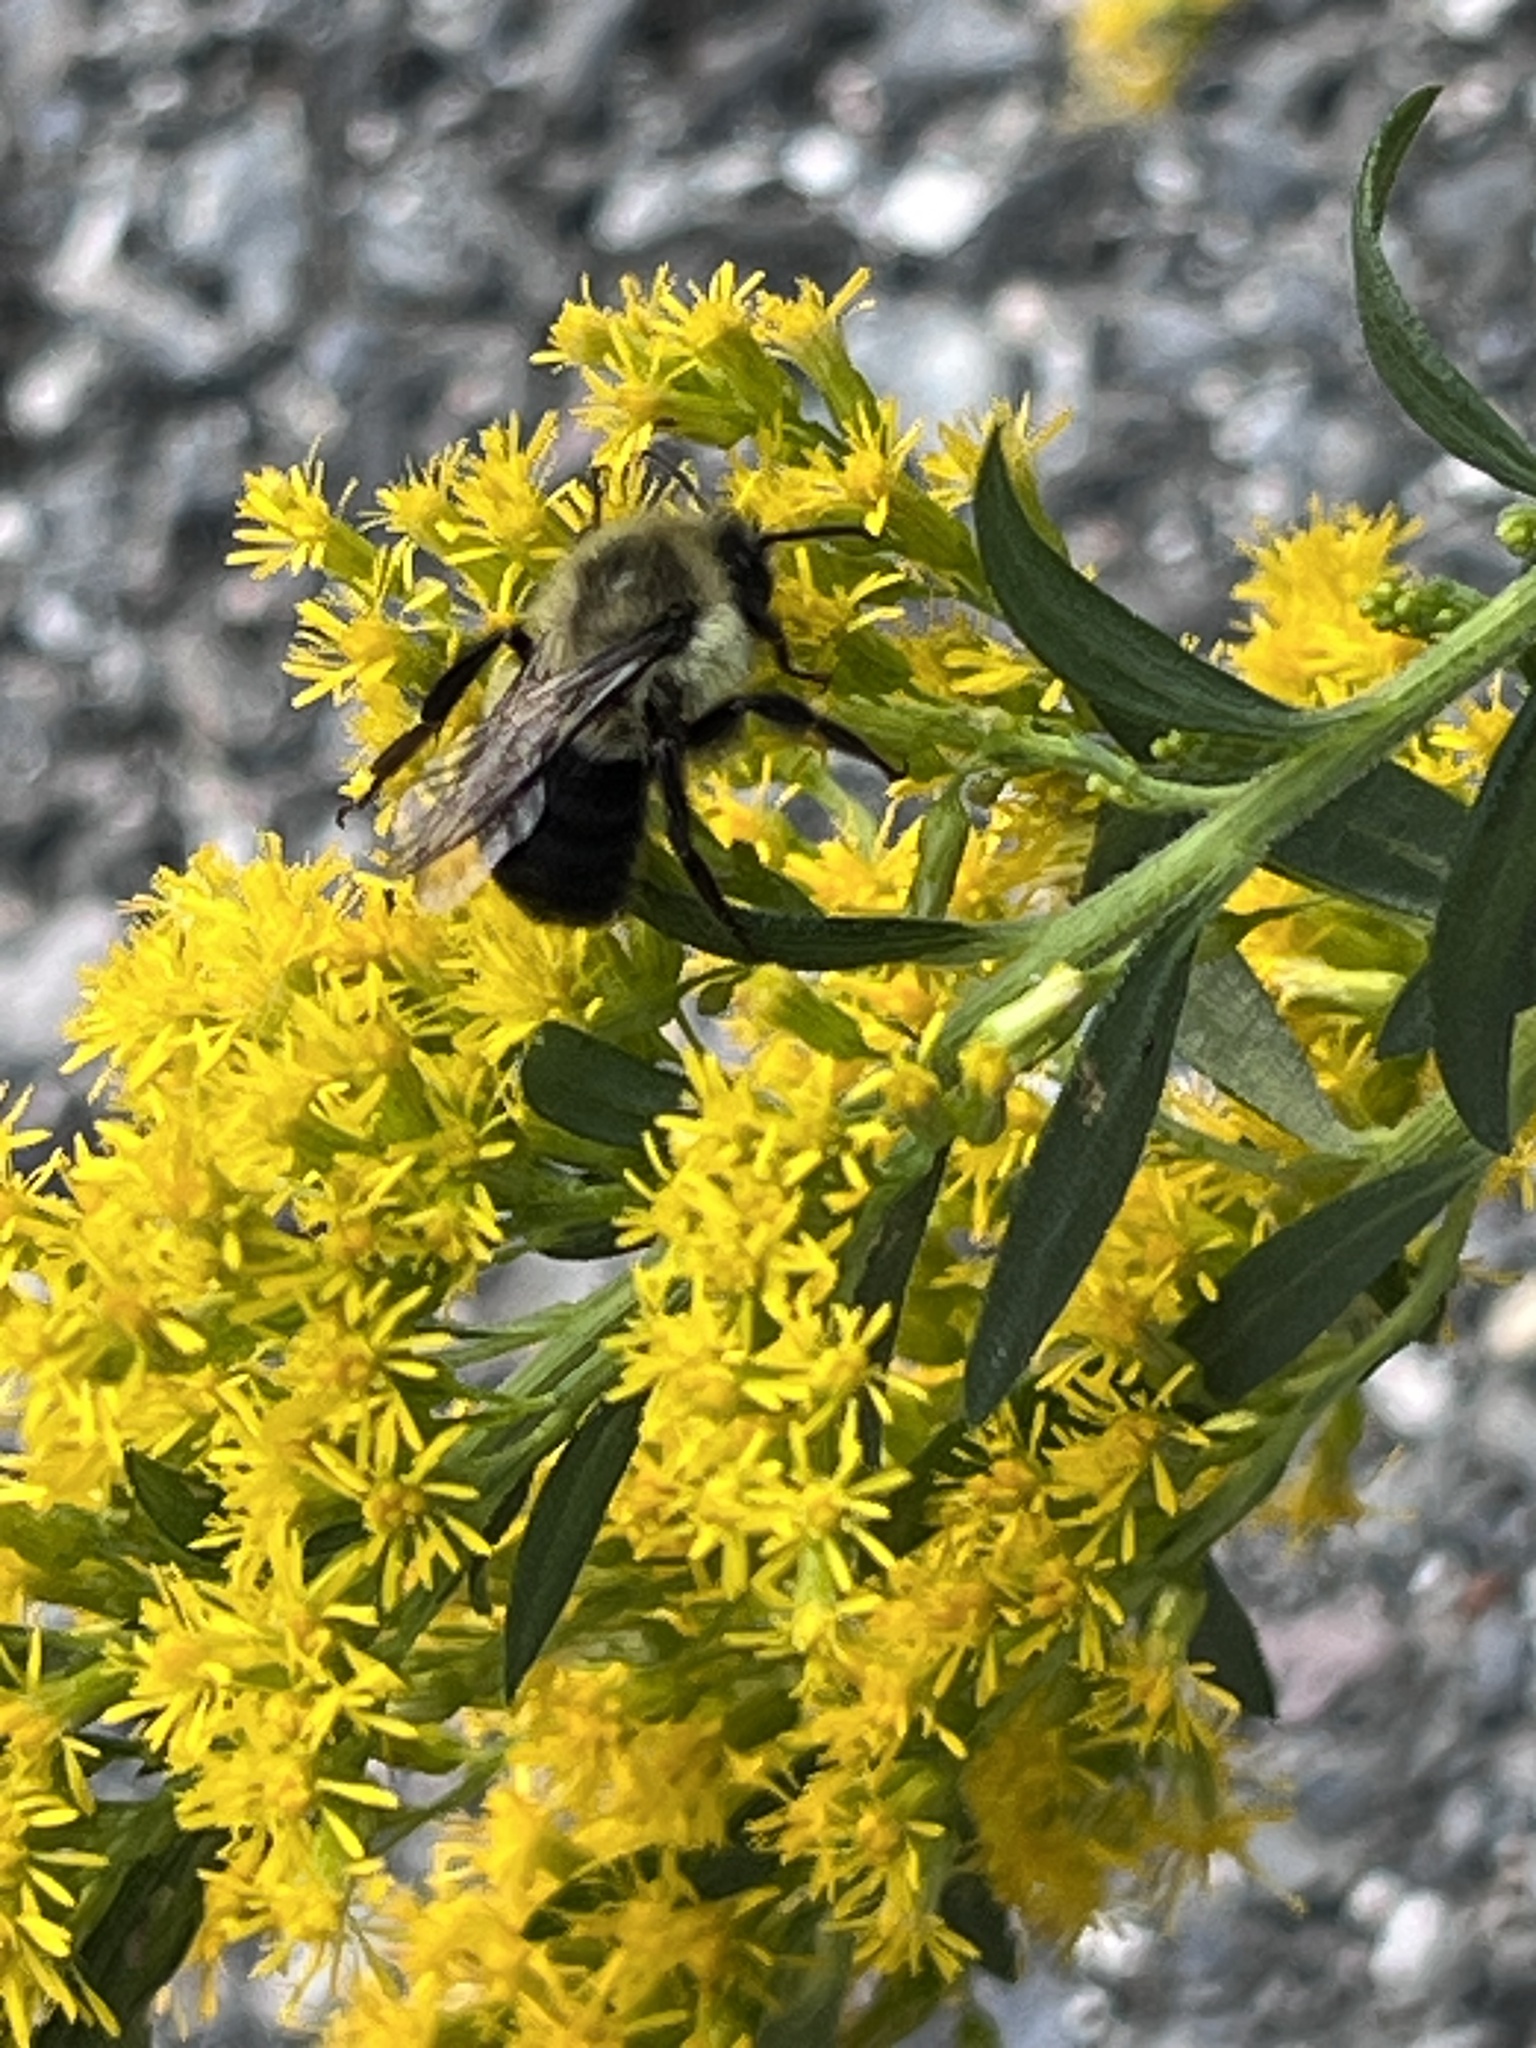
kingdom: Animalia
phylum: Arthropoda
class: Insecta
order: Hymenoptera
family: Apidae
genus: Bombus
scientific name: Bombus impatiens
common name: Common eastern bumble bee
